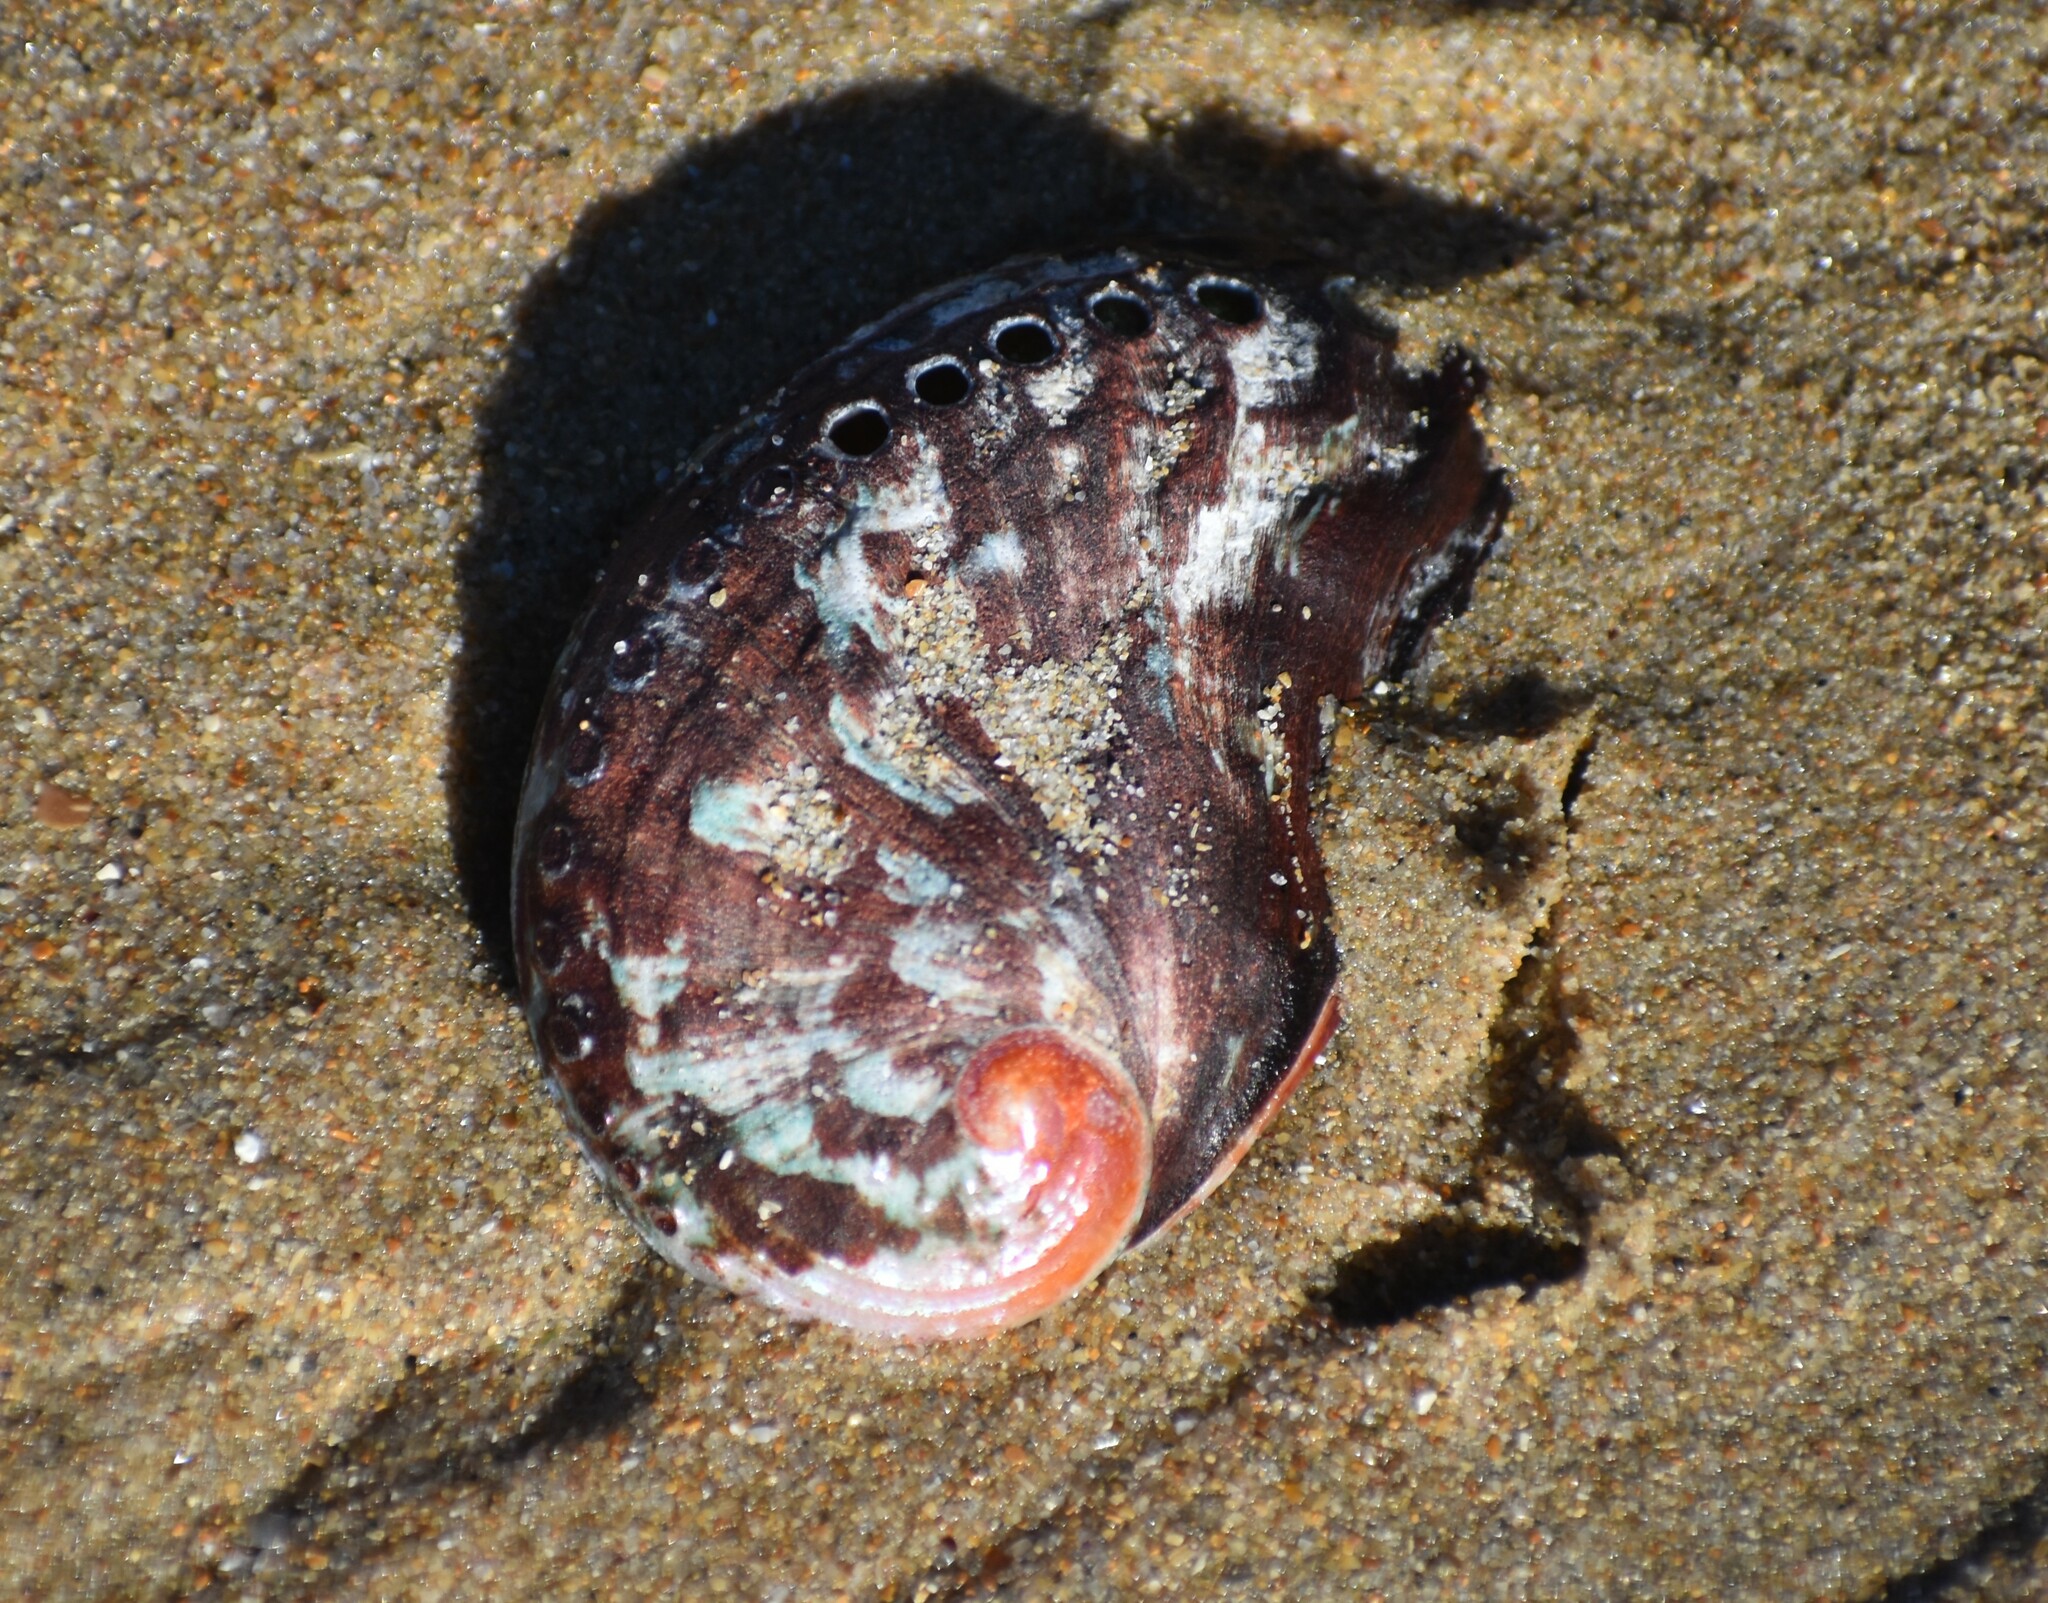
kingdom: Animalia
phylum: Mollusca
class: Gastropoda
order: Lepetellida
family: Haliotidae
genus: Haliotis
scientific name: Haliotis spadicea
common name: Siffie
